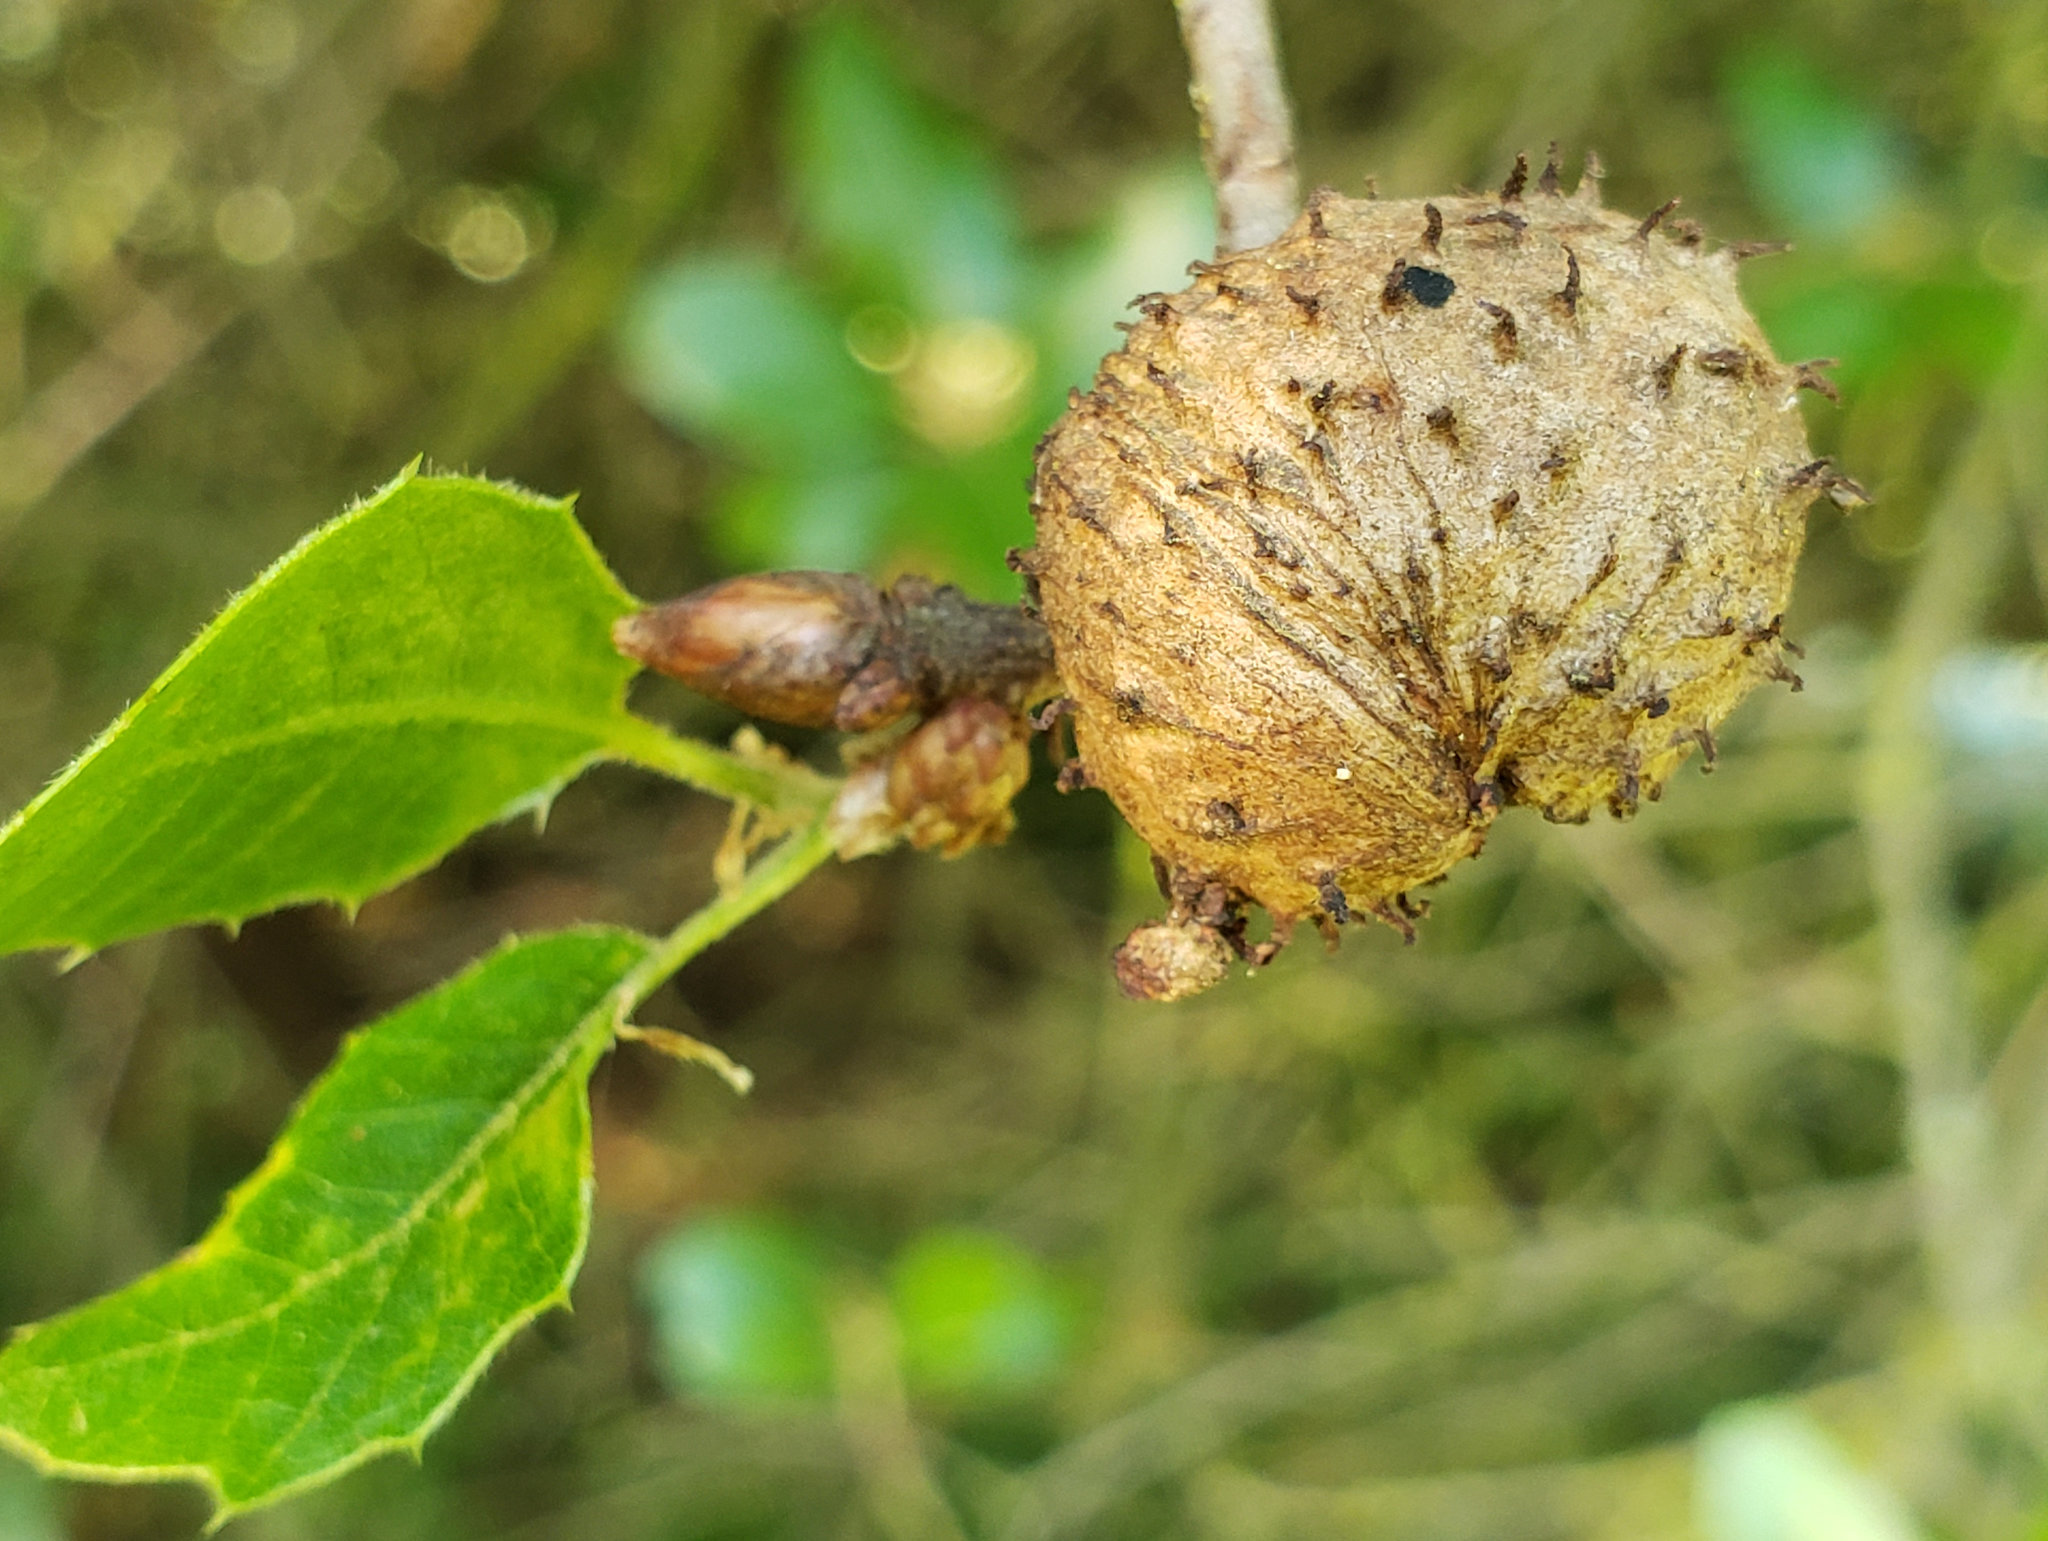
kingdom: Animalia
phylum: Arthropoda
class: Insecta
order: Hymenoptera
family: Cynipidae
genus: Amphibolips
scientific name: Amphibolips quercuspomiformis
